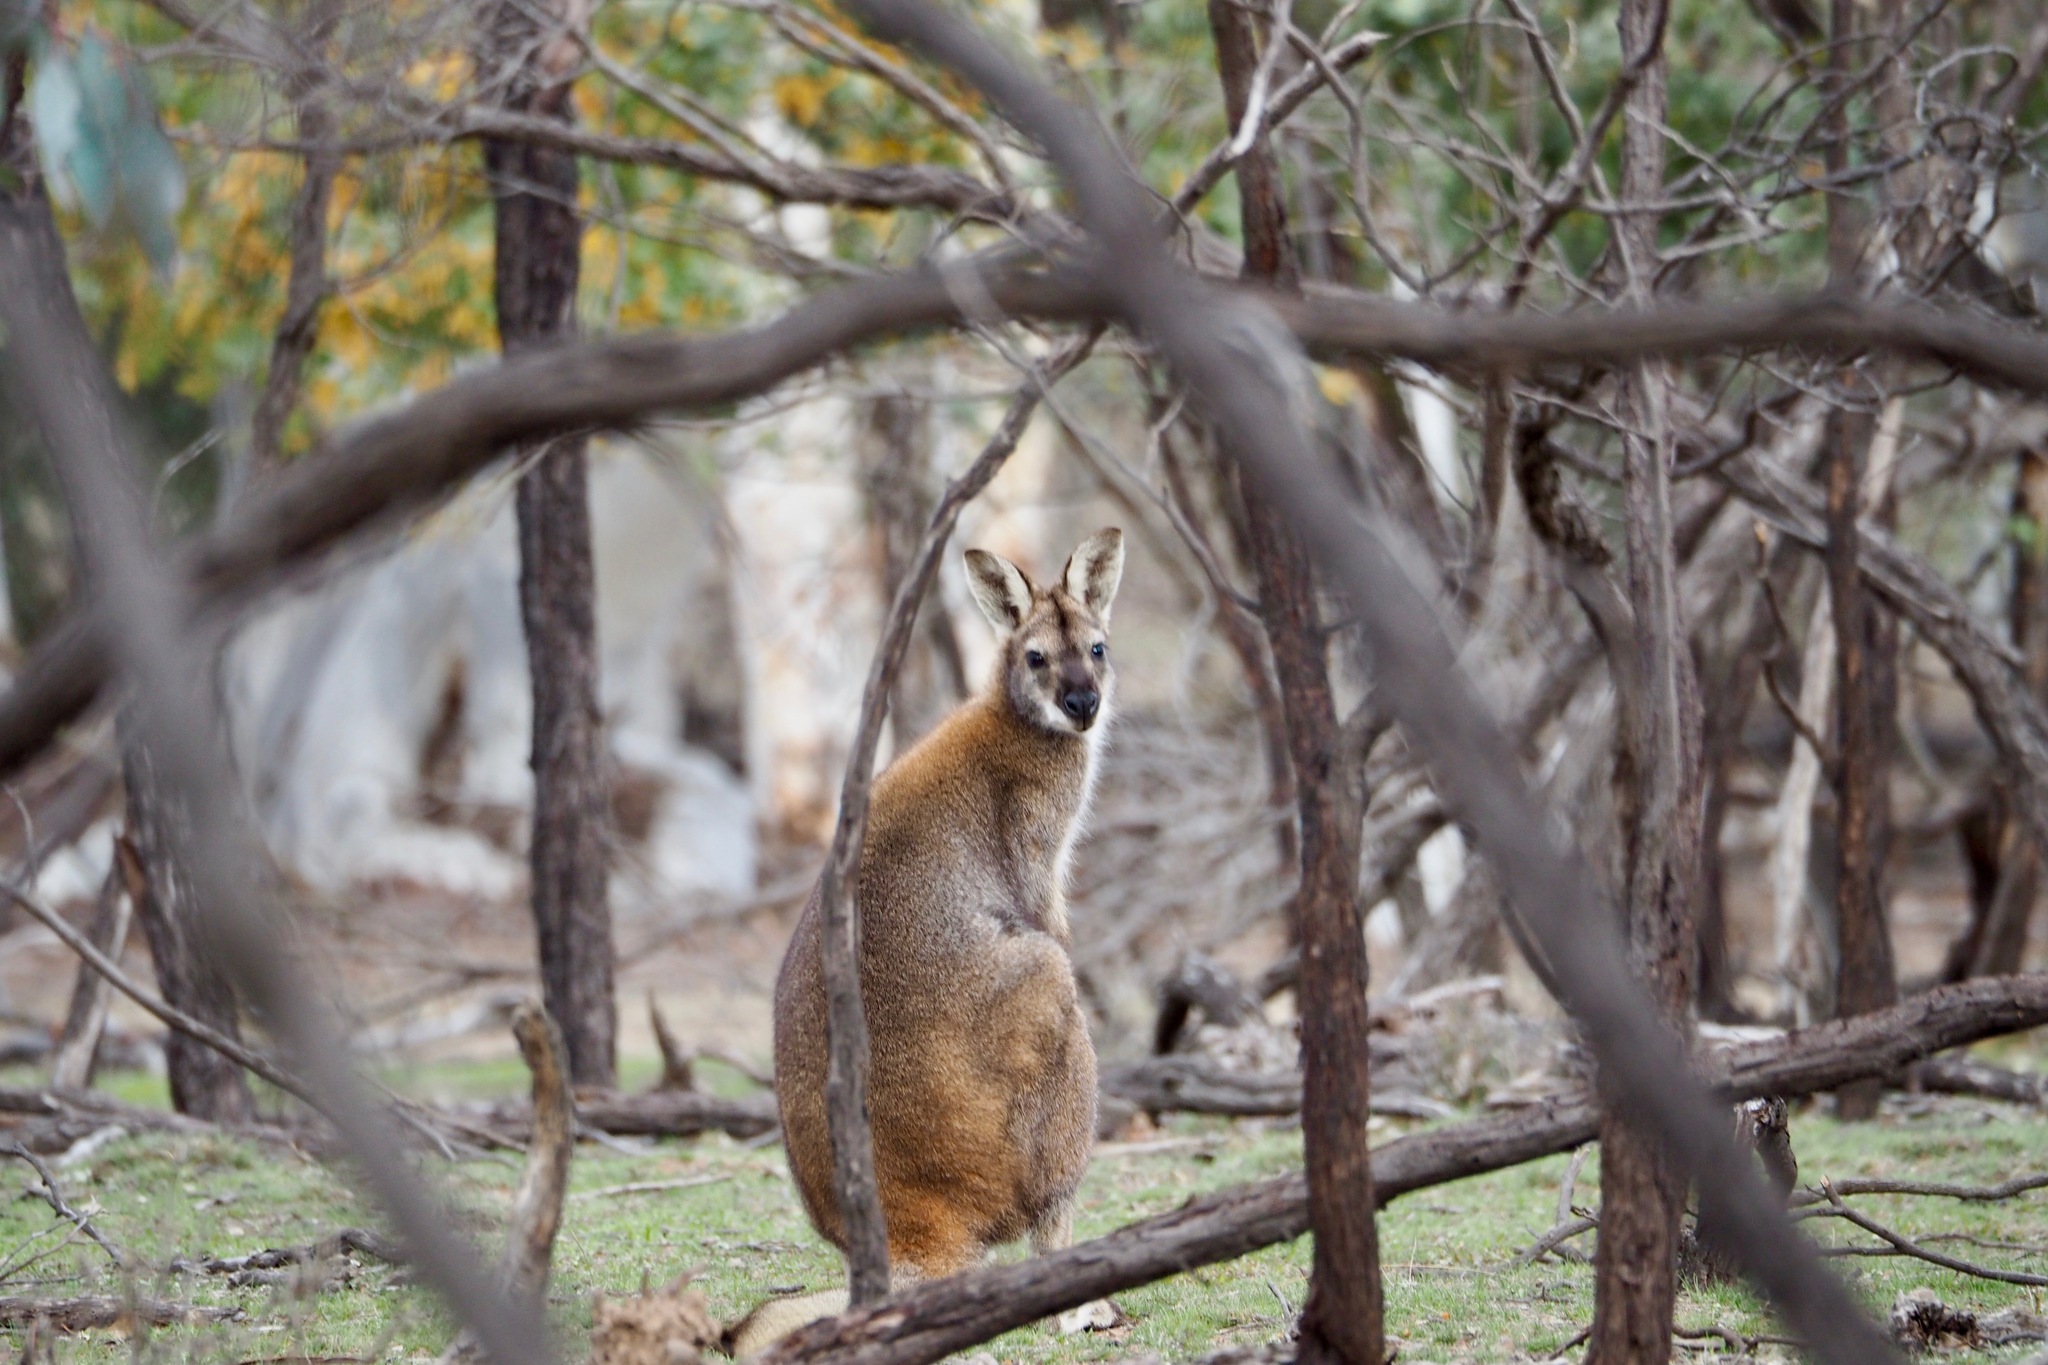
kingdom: Animalia
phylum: Chordata
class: Mammalia
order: Diprotodontia
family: Macropodidae
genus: Notamacropus
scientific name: Notamacropus rufogriseus
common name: Red-necked wallaby
